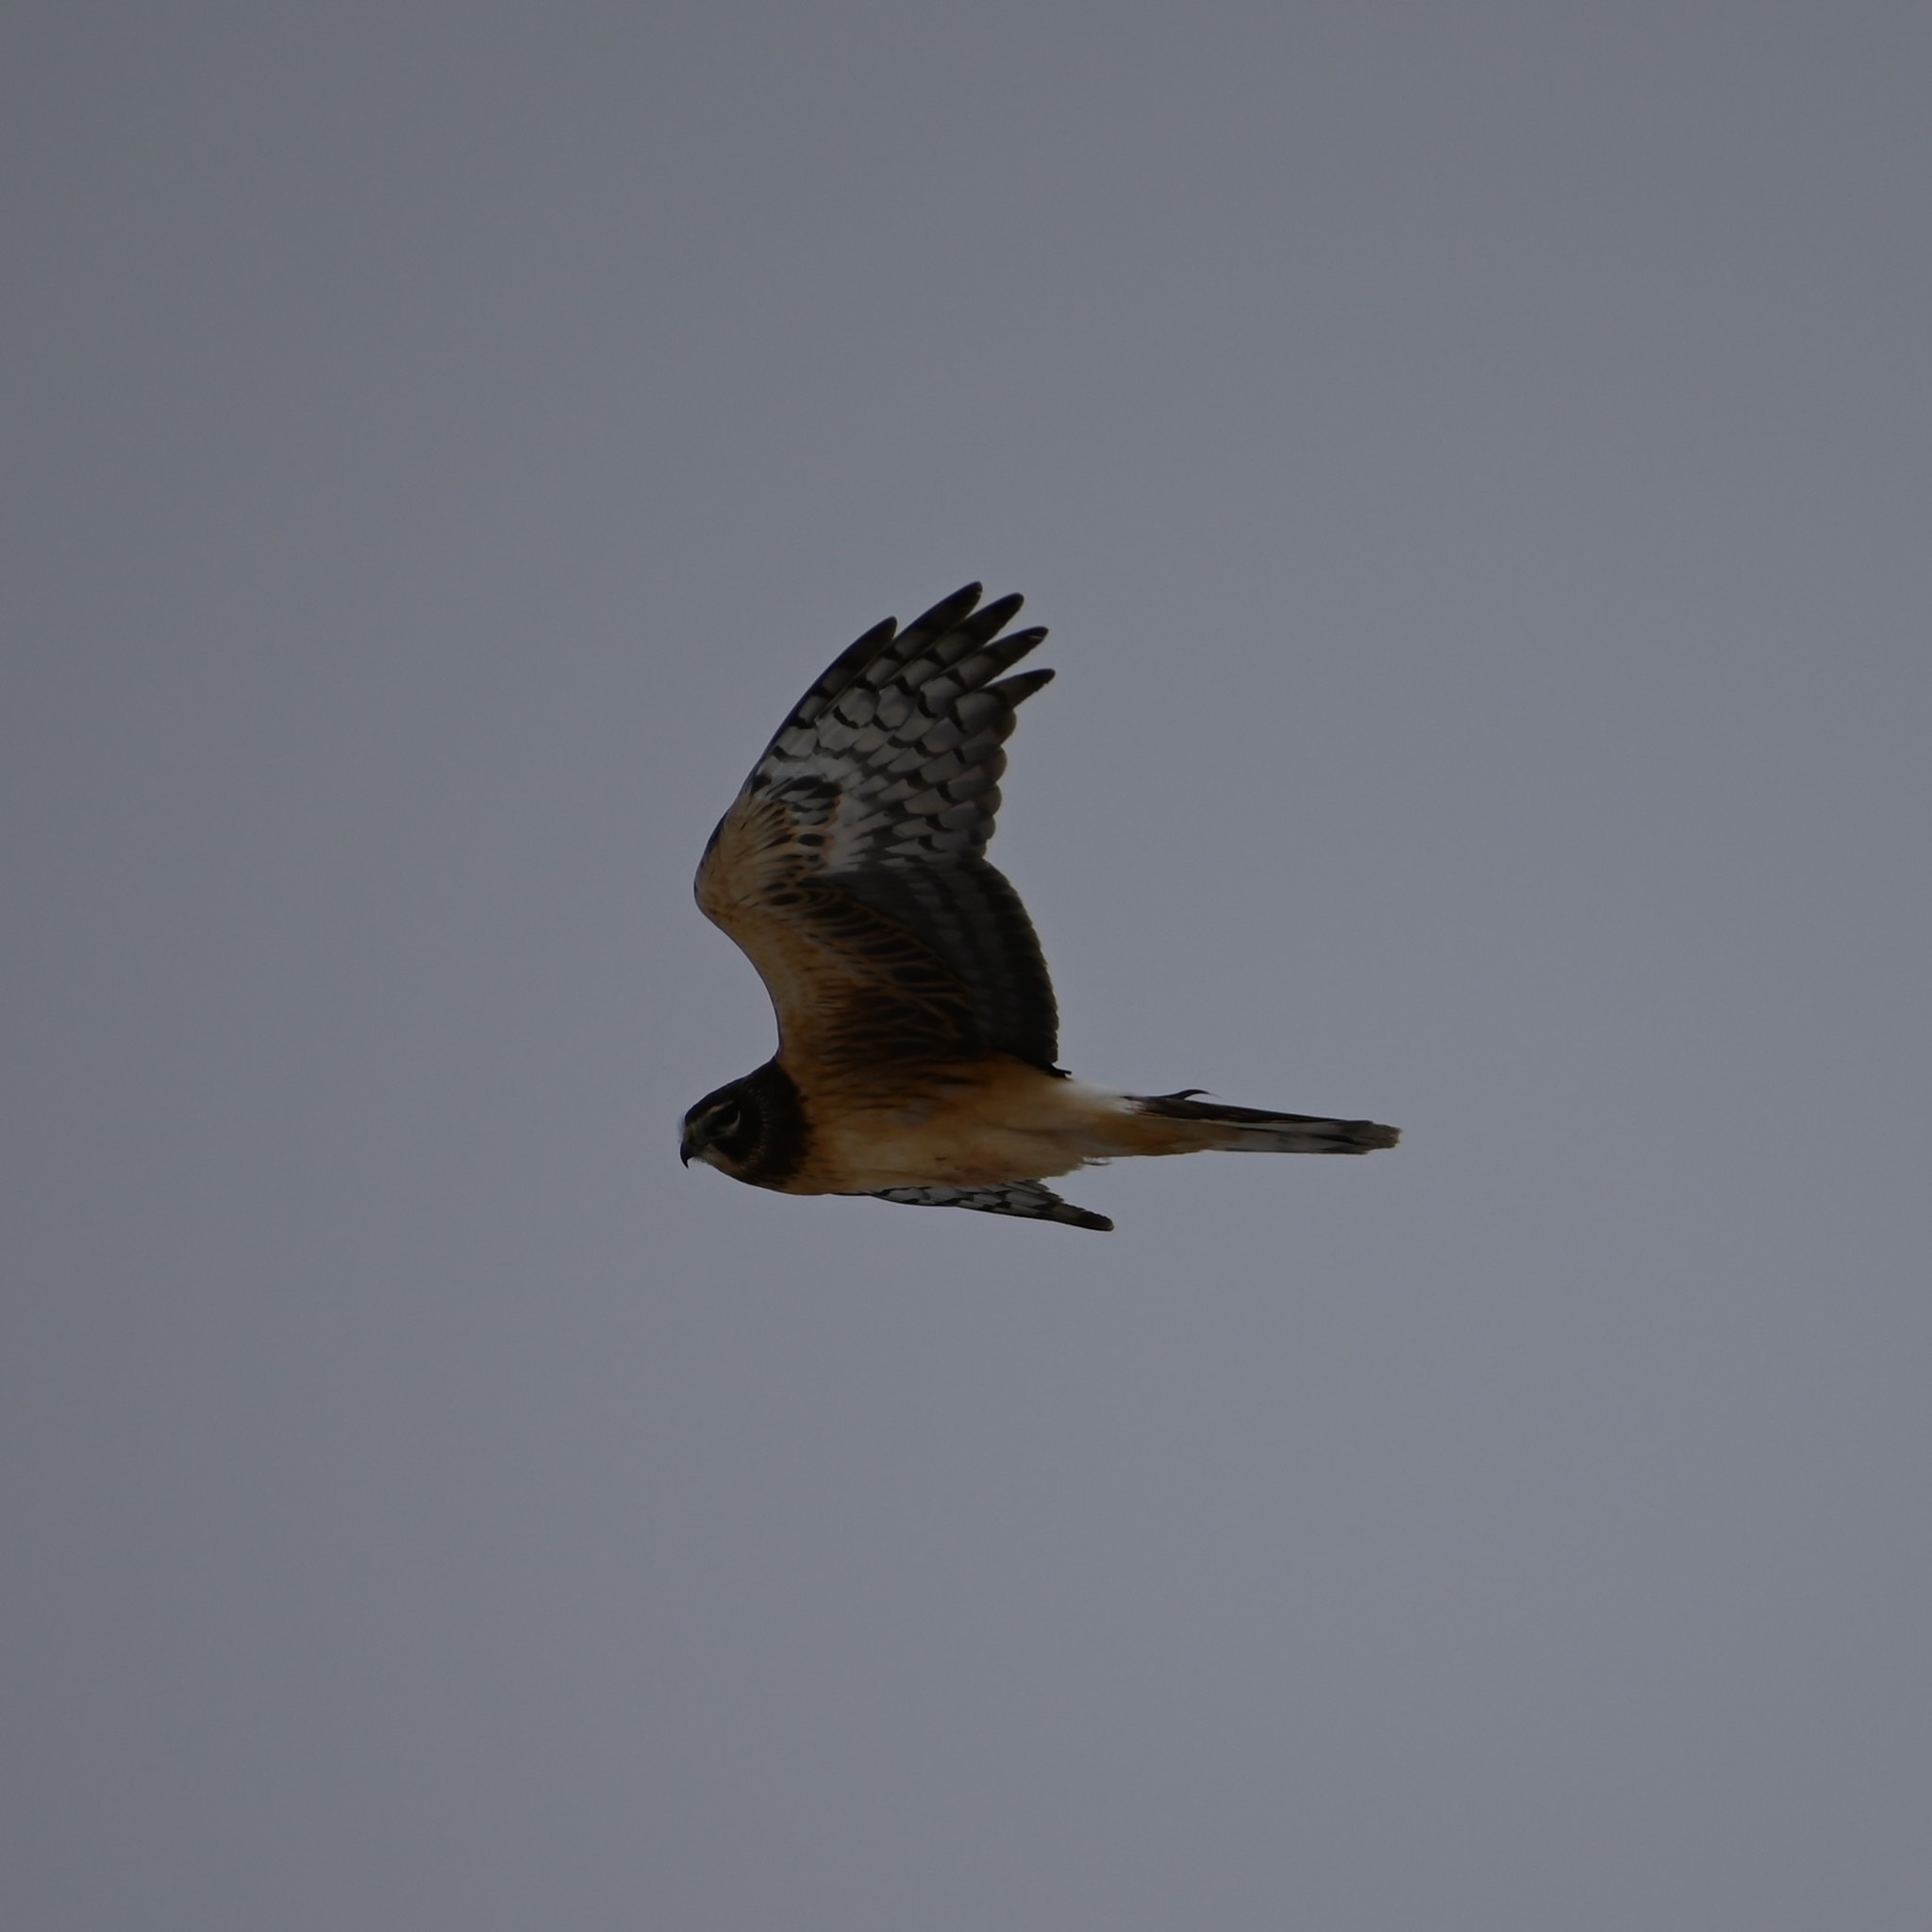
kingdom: Animalia
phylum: Chordata
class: Aves
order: Accipitriformes
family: Accipitridae
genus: Circus
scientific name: Circus cyaneus
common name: Hen harrier
